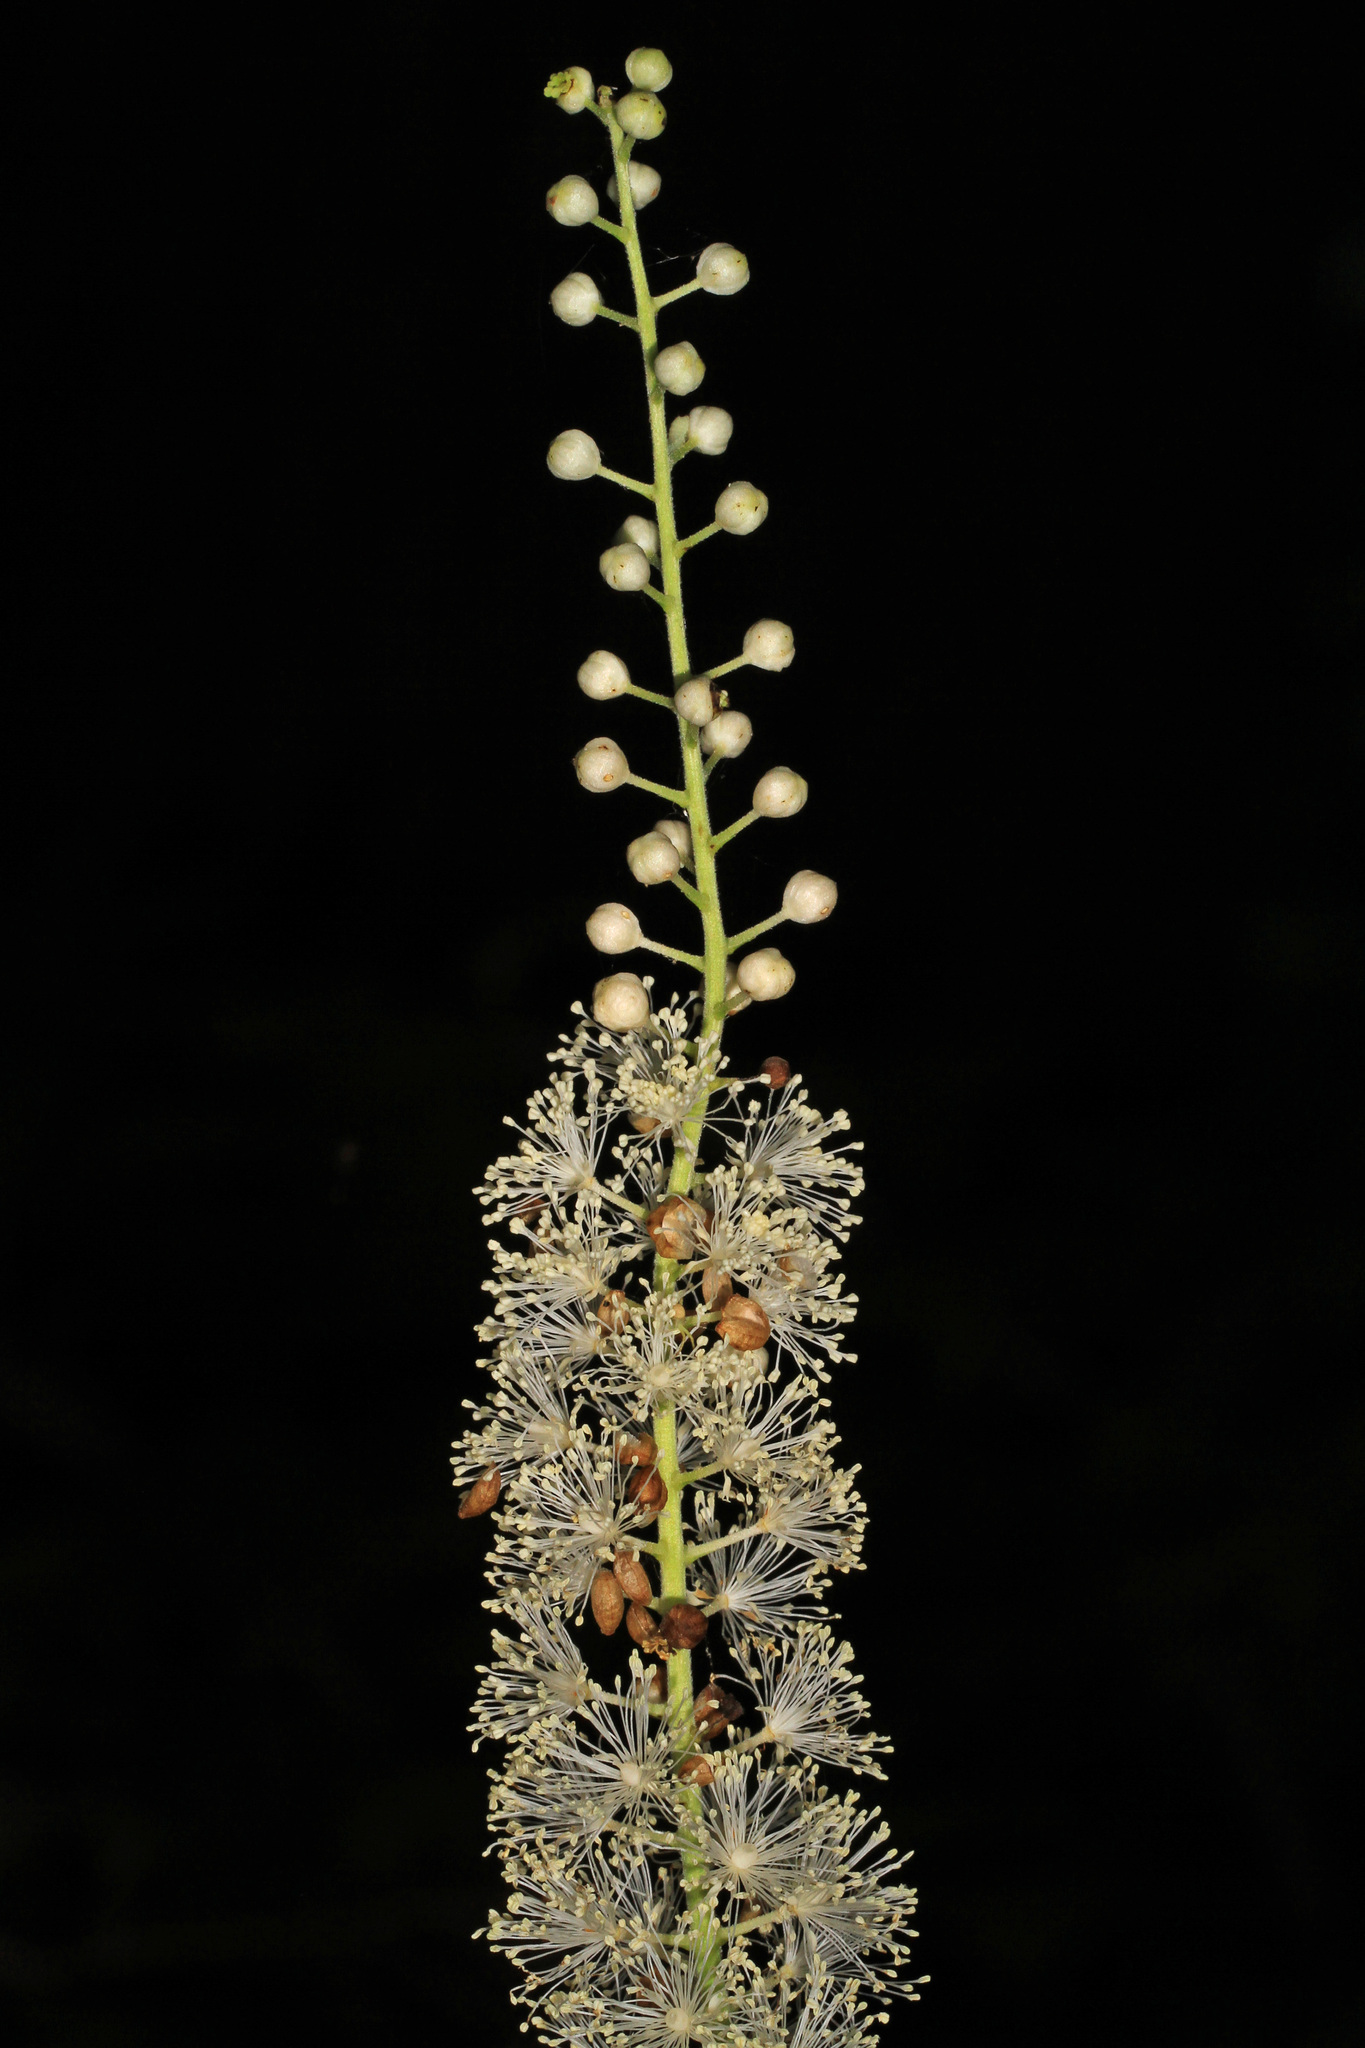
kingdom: Plantae
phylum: Tracheophyta
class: Magnoliopsida
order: Ranunculales
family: Ranunculaceae
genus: Actaea
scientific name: Actaea racemosa
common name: Black cohosh
